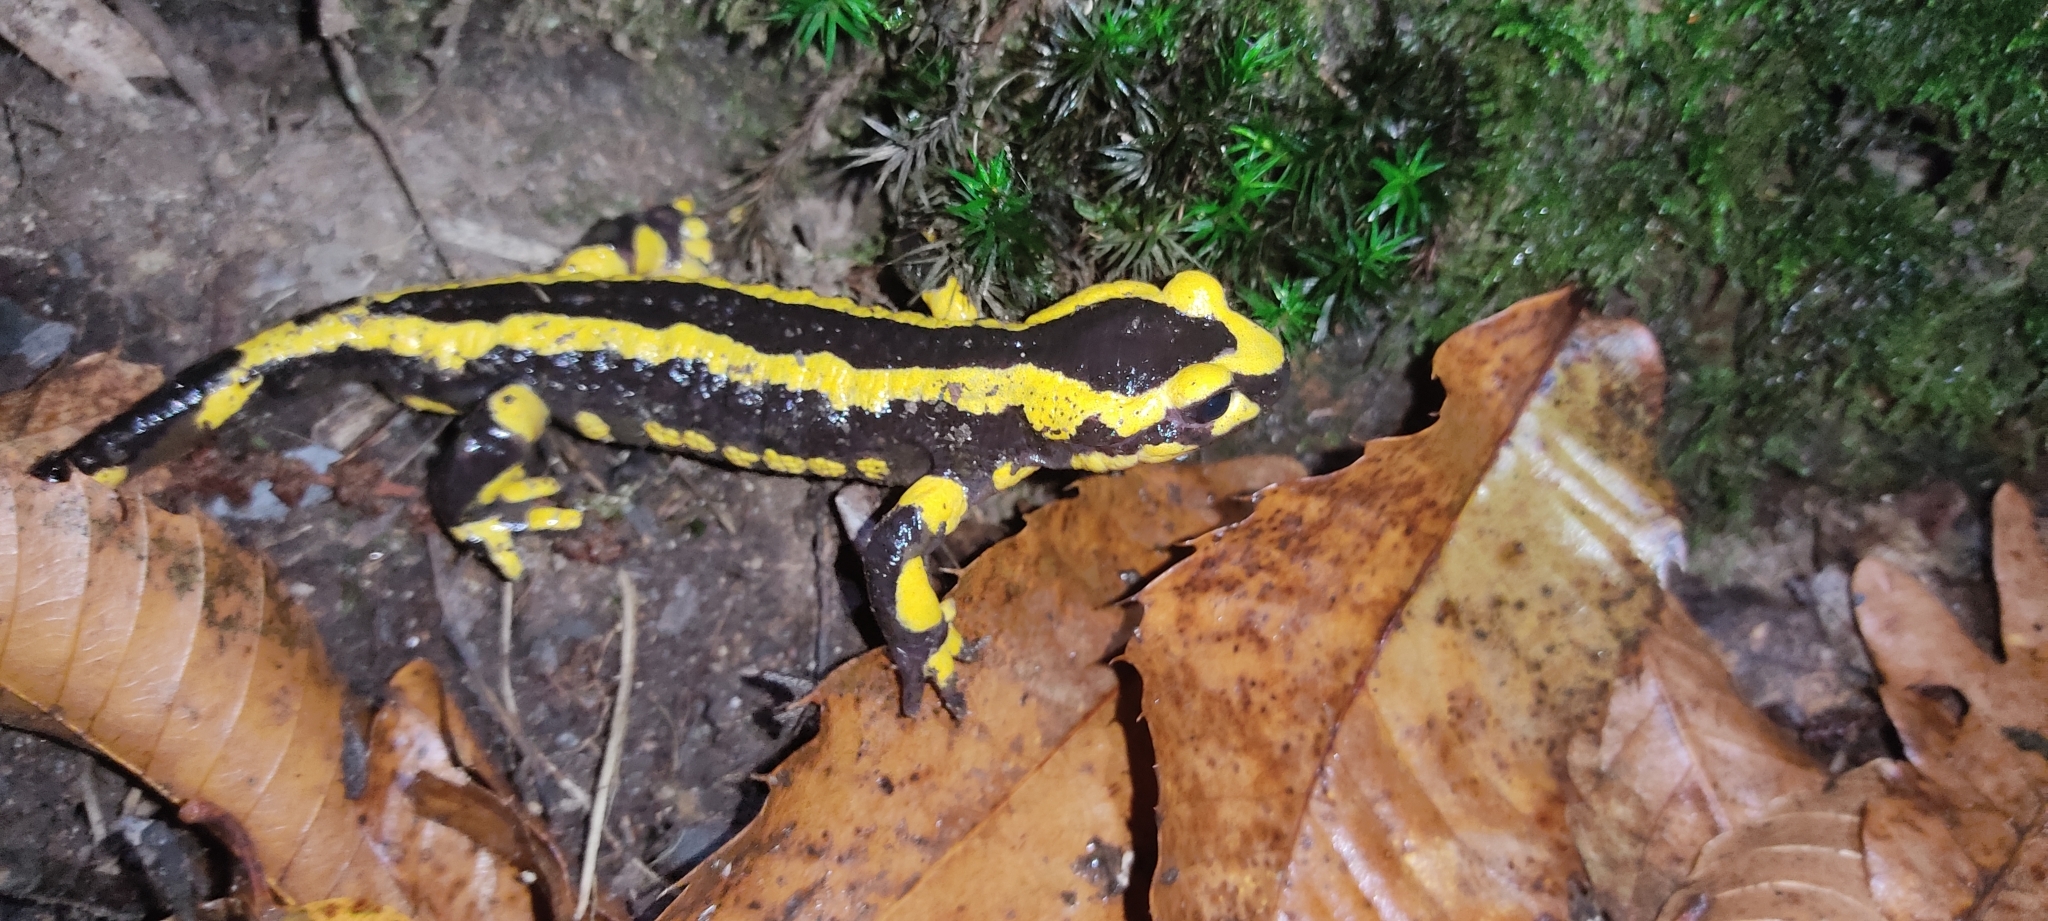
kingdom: Animalia
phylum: Chordata
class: Amphibia
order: Caudata
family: Salamandridae
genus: Salamandra
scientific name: Salamandra salamandra
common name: Fire salamander
